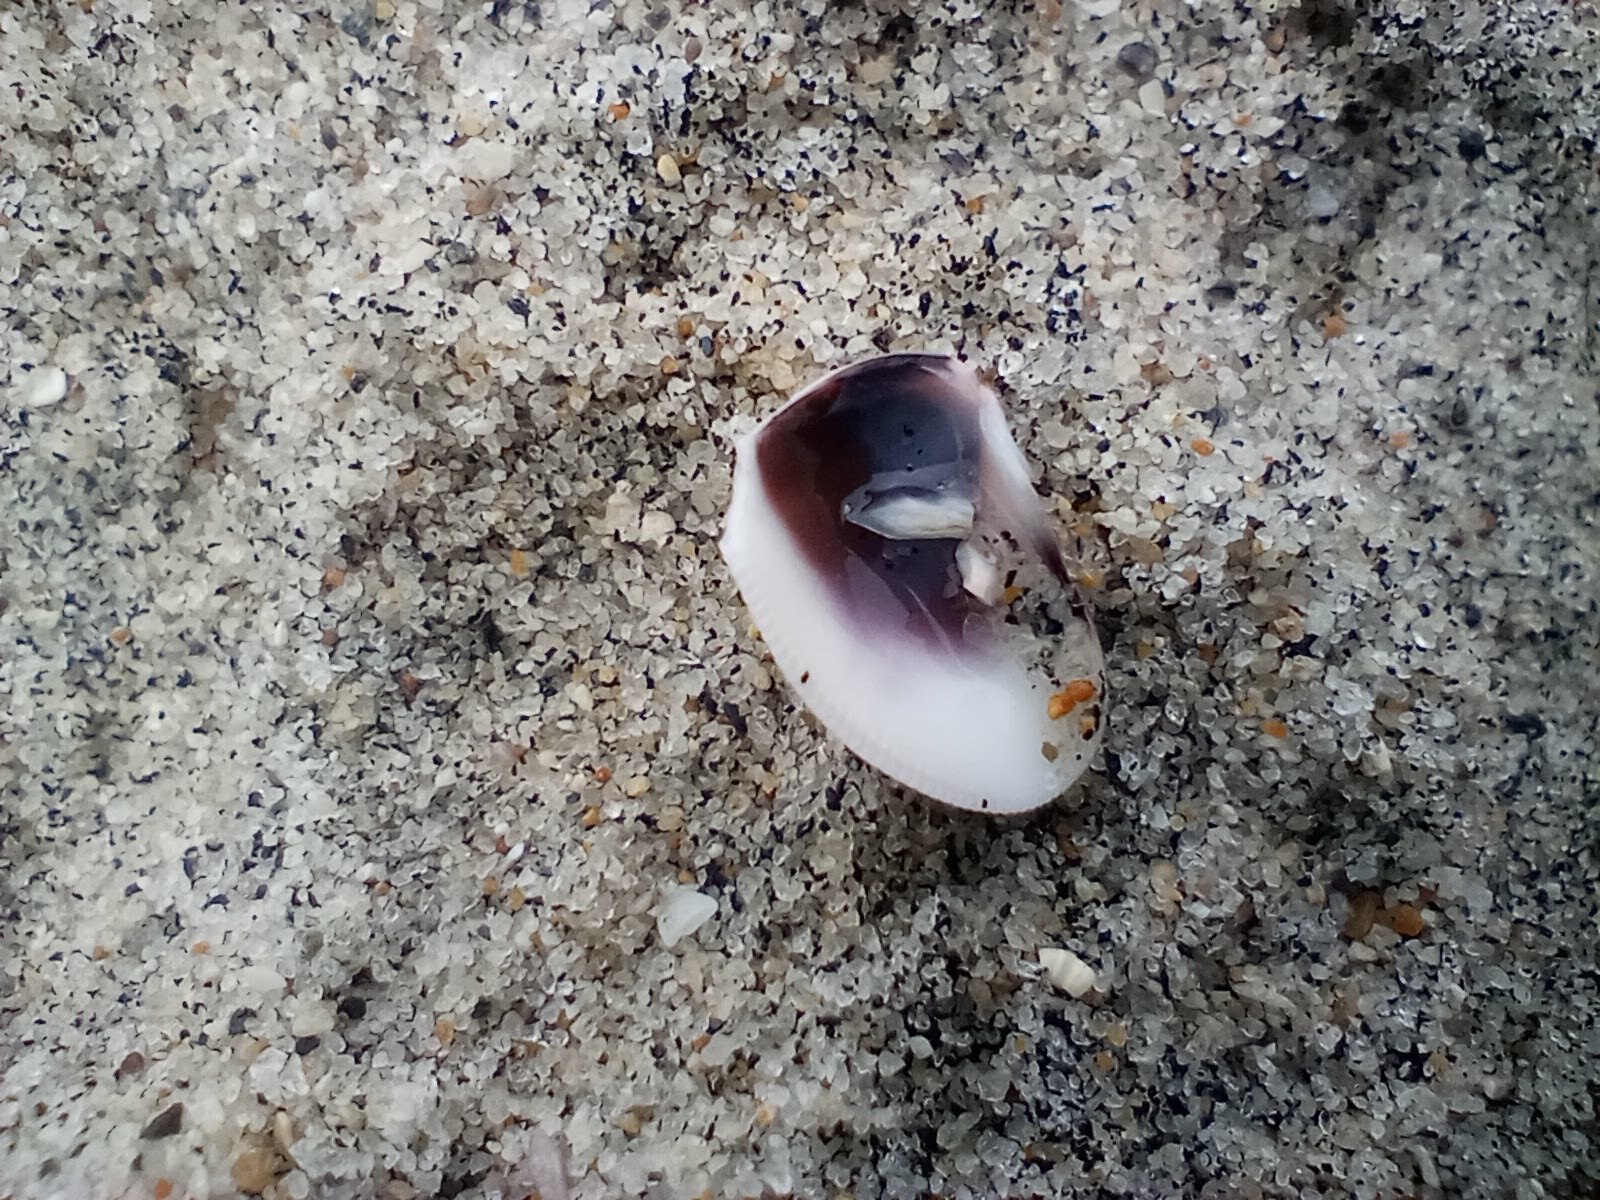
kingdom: Animalia
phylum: Mollusca
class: Bivalvia
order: Cardiida
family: Donacidae
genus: Donax
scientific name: Donax gouldii
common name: Gould beanclam
